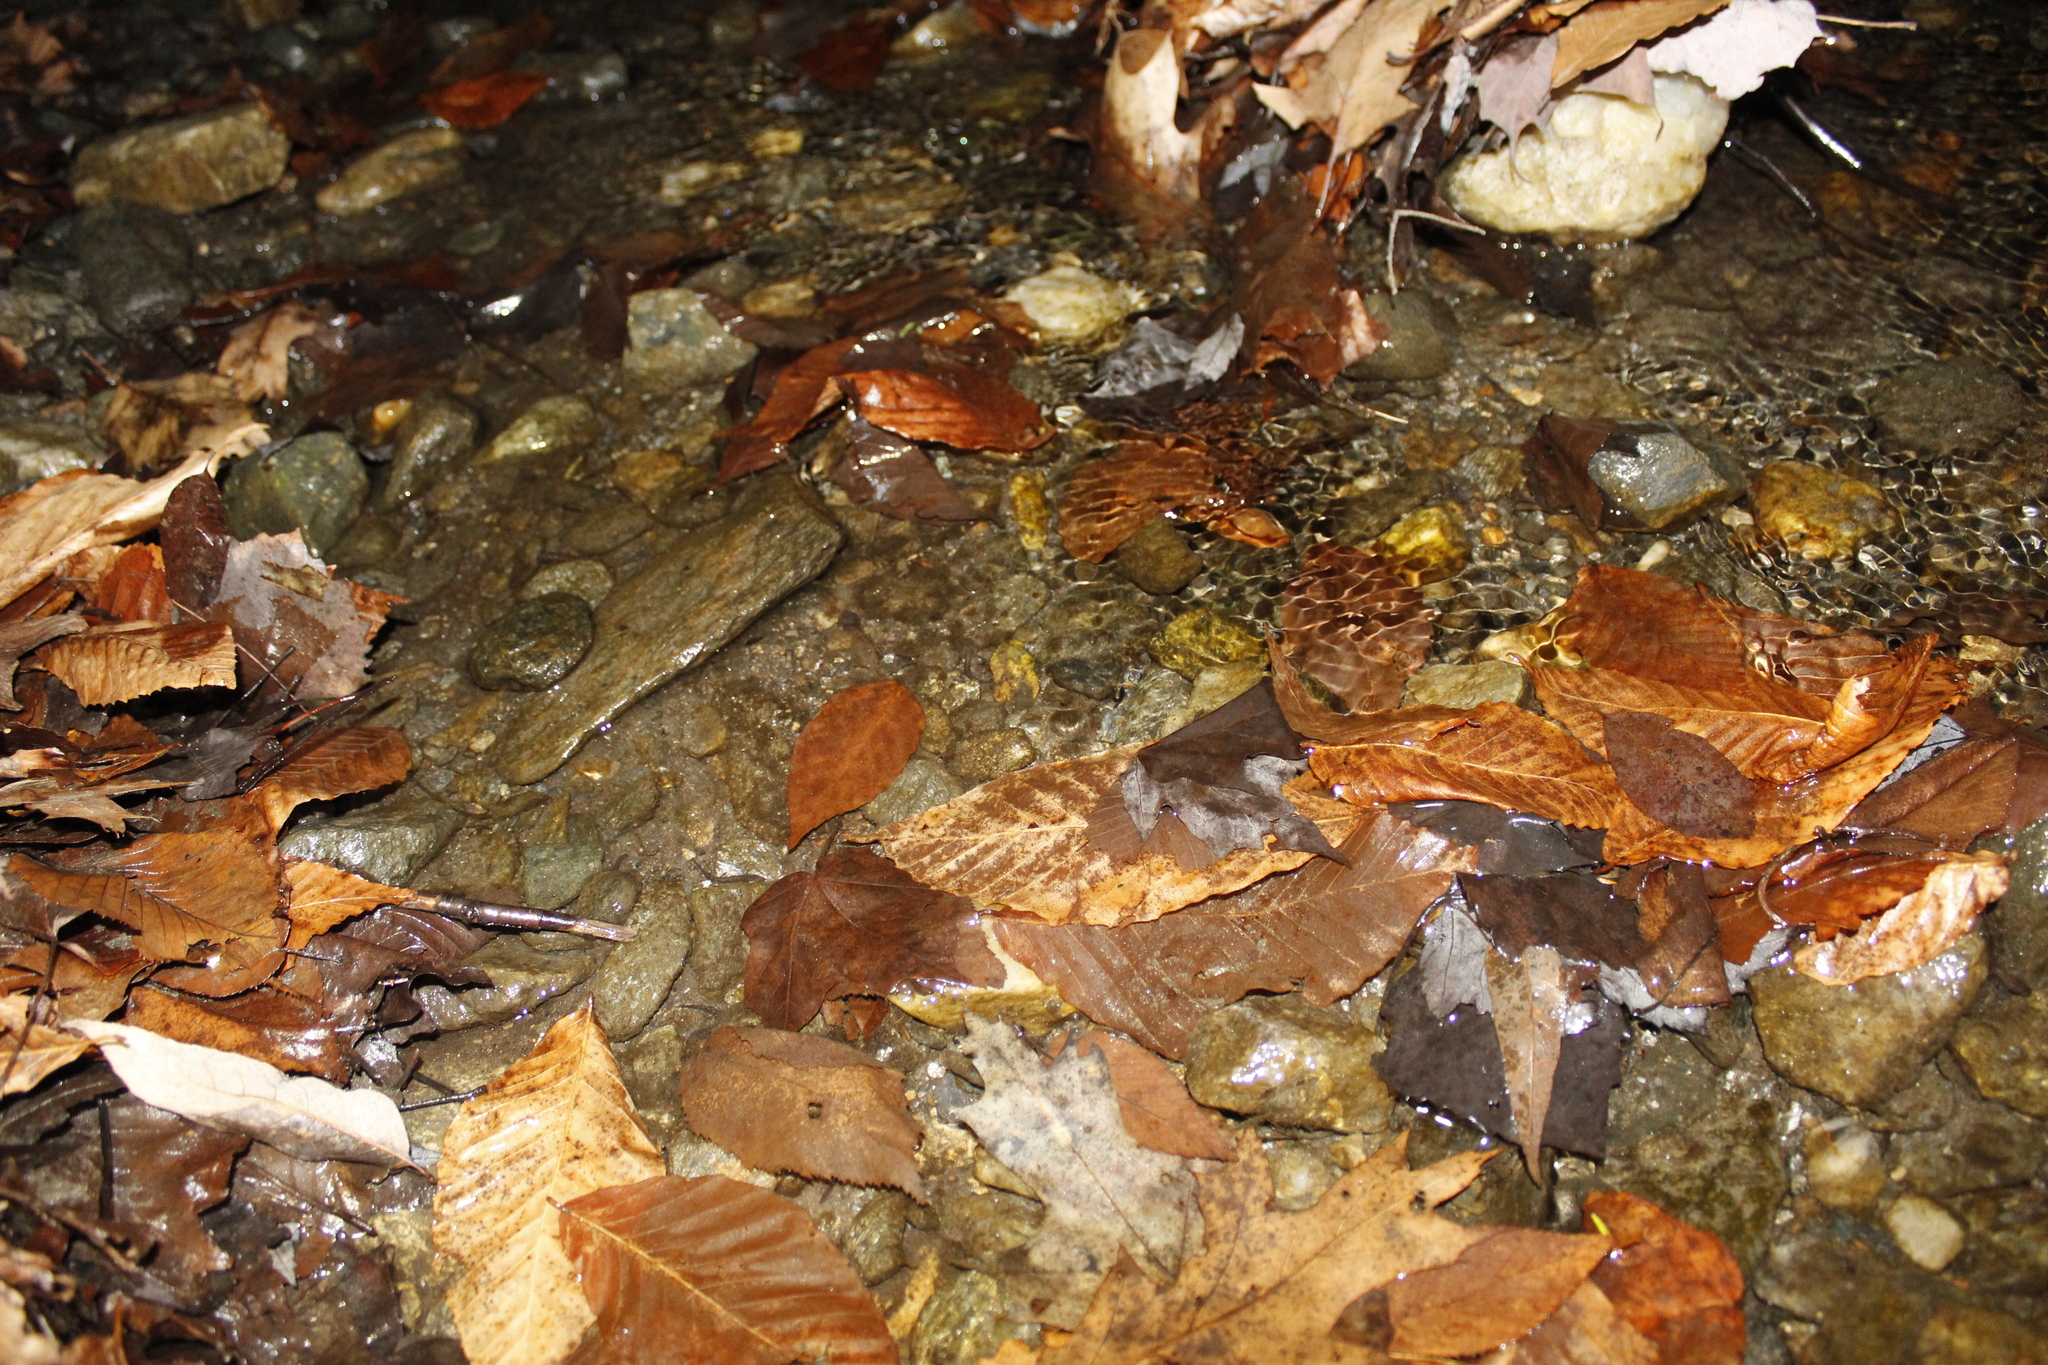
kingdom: Plantae
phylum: Tracheophyta
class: Magnoliopsida
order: Fagales
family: Fagaceae
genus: Fagus
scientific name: Fagus grandifolia
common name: American beech
